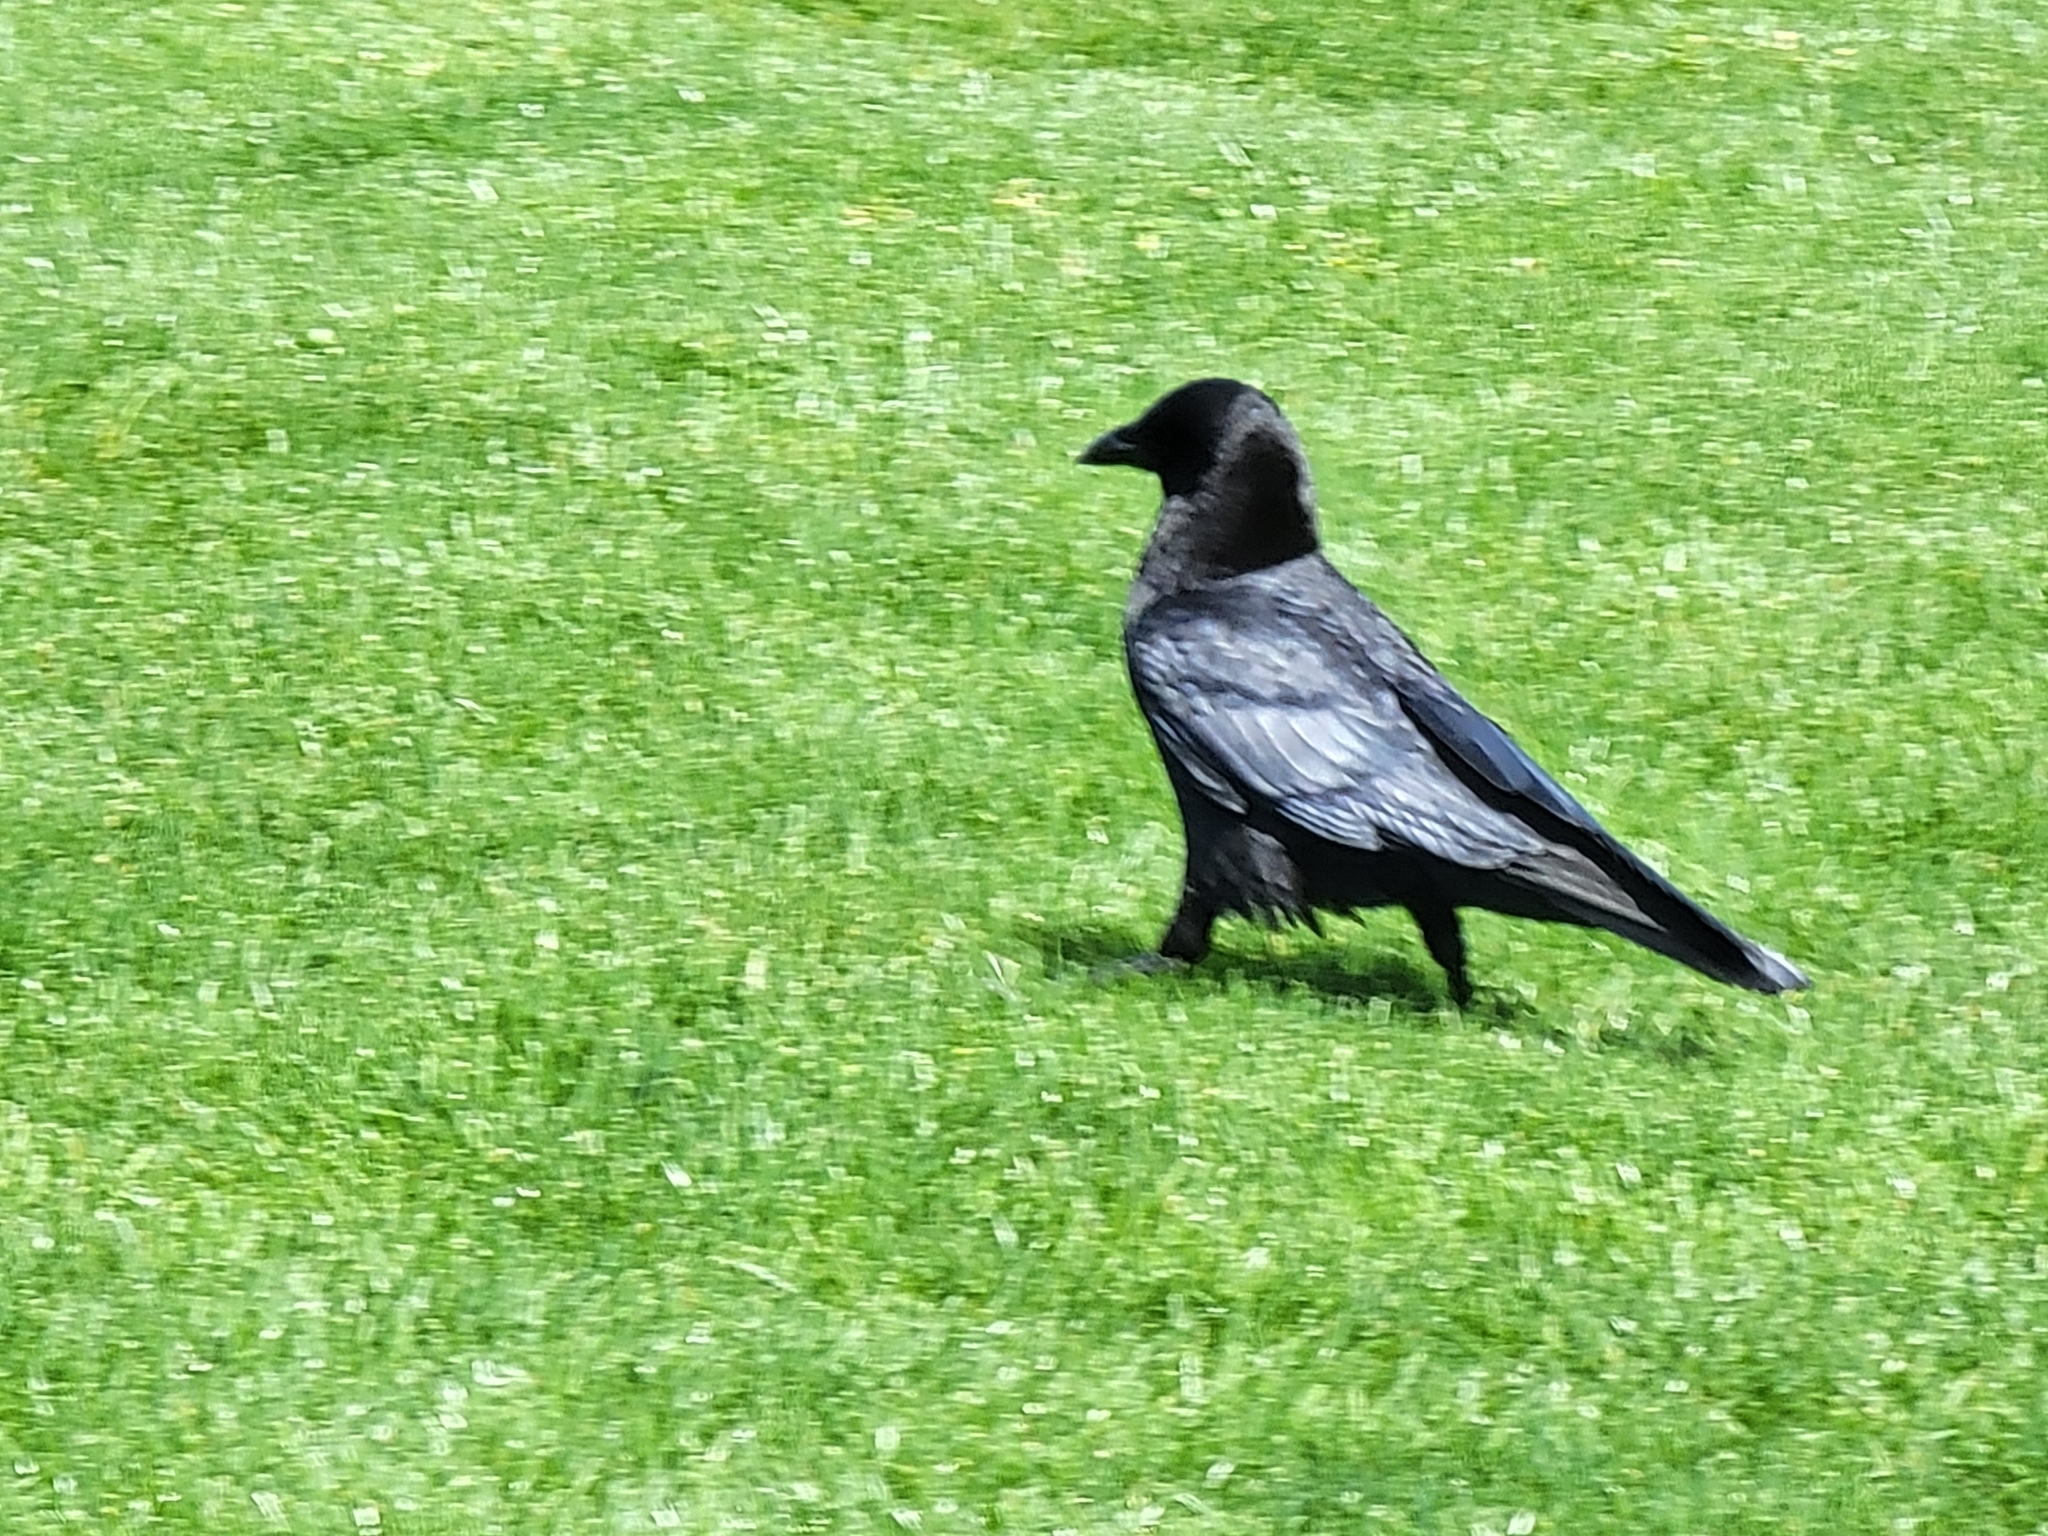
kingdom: Animalia
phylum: Chordata
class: Aves
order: Passeriformes
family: Corvidae
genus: Corvus
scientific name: Corvus brachyrhynchos
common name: American crow
